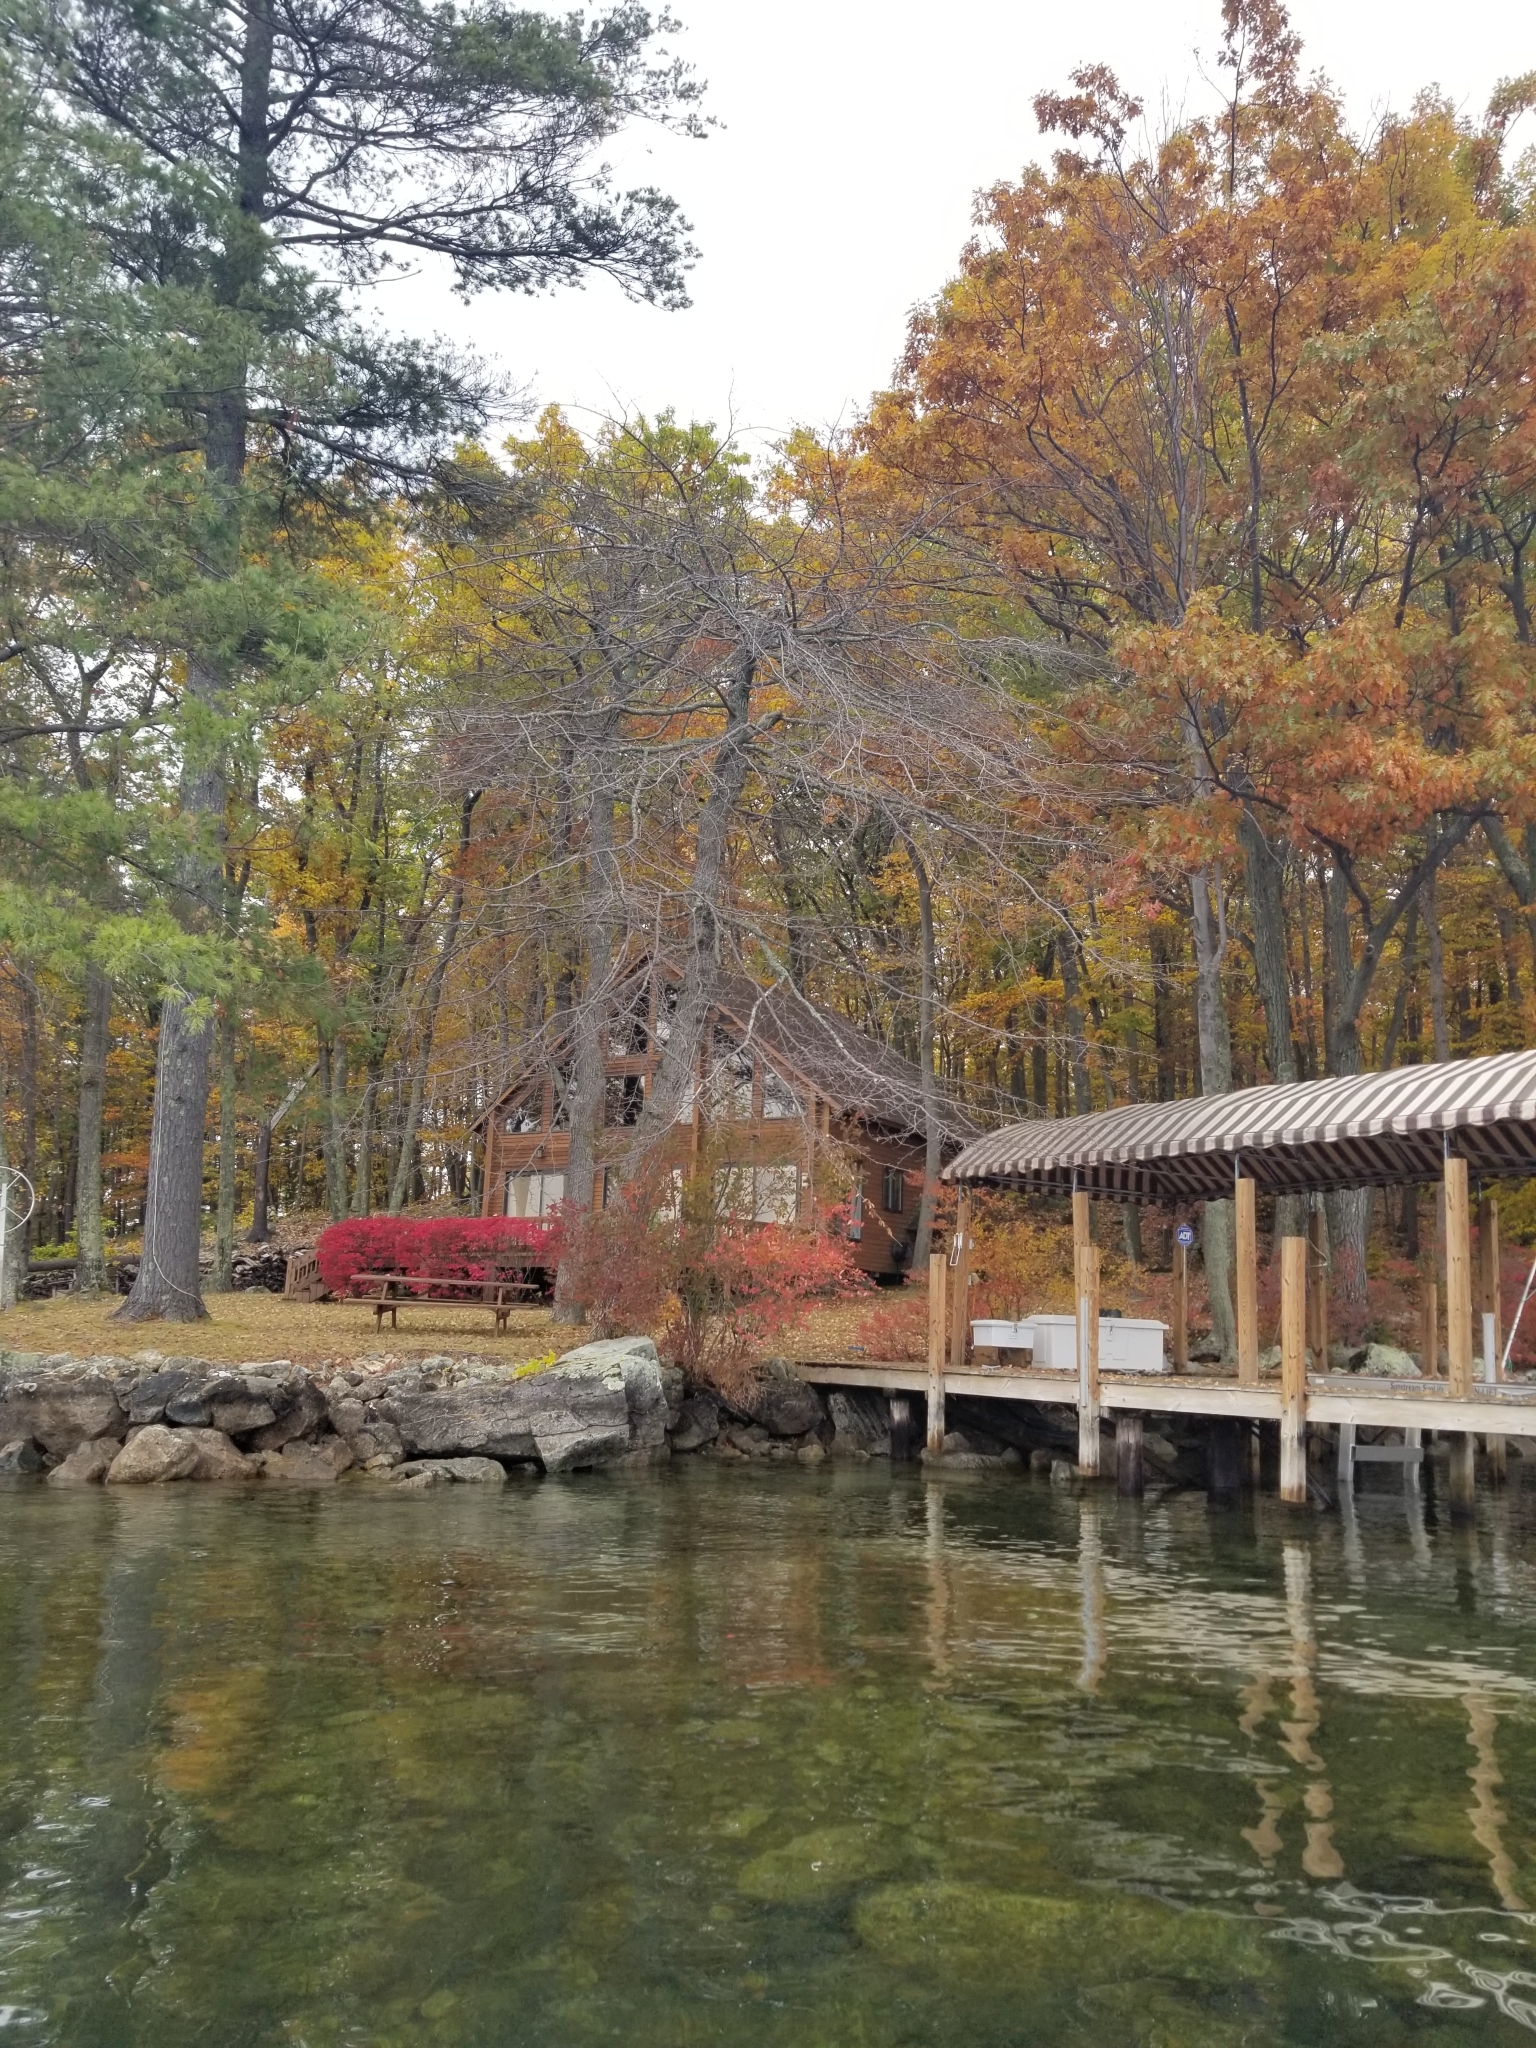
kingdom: Plantae
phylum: Tracheophyta
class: Magnoliopsida
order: Cornales
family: Nyssaceae
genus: Nyssa
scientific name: Nyssa sylvatica
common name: Black tupelo
